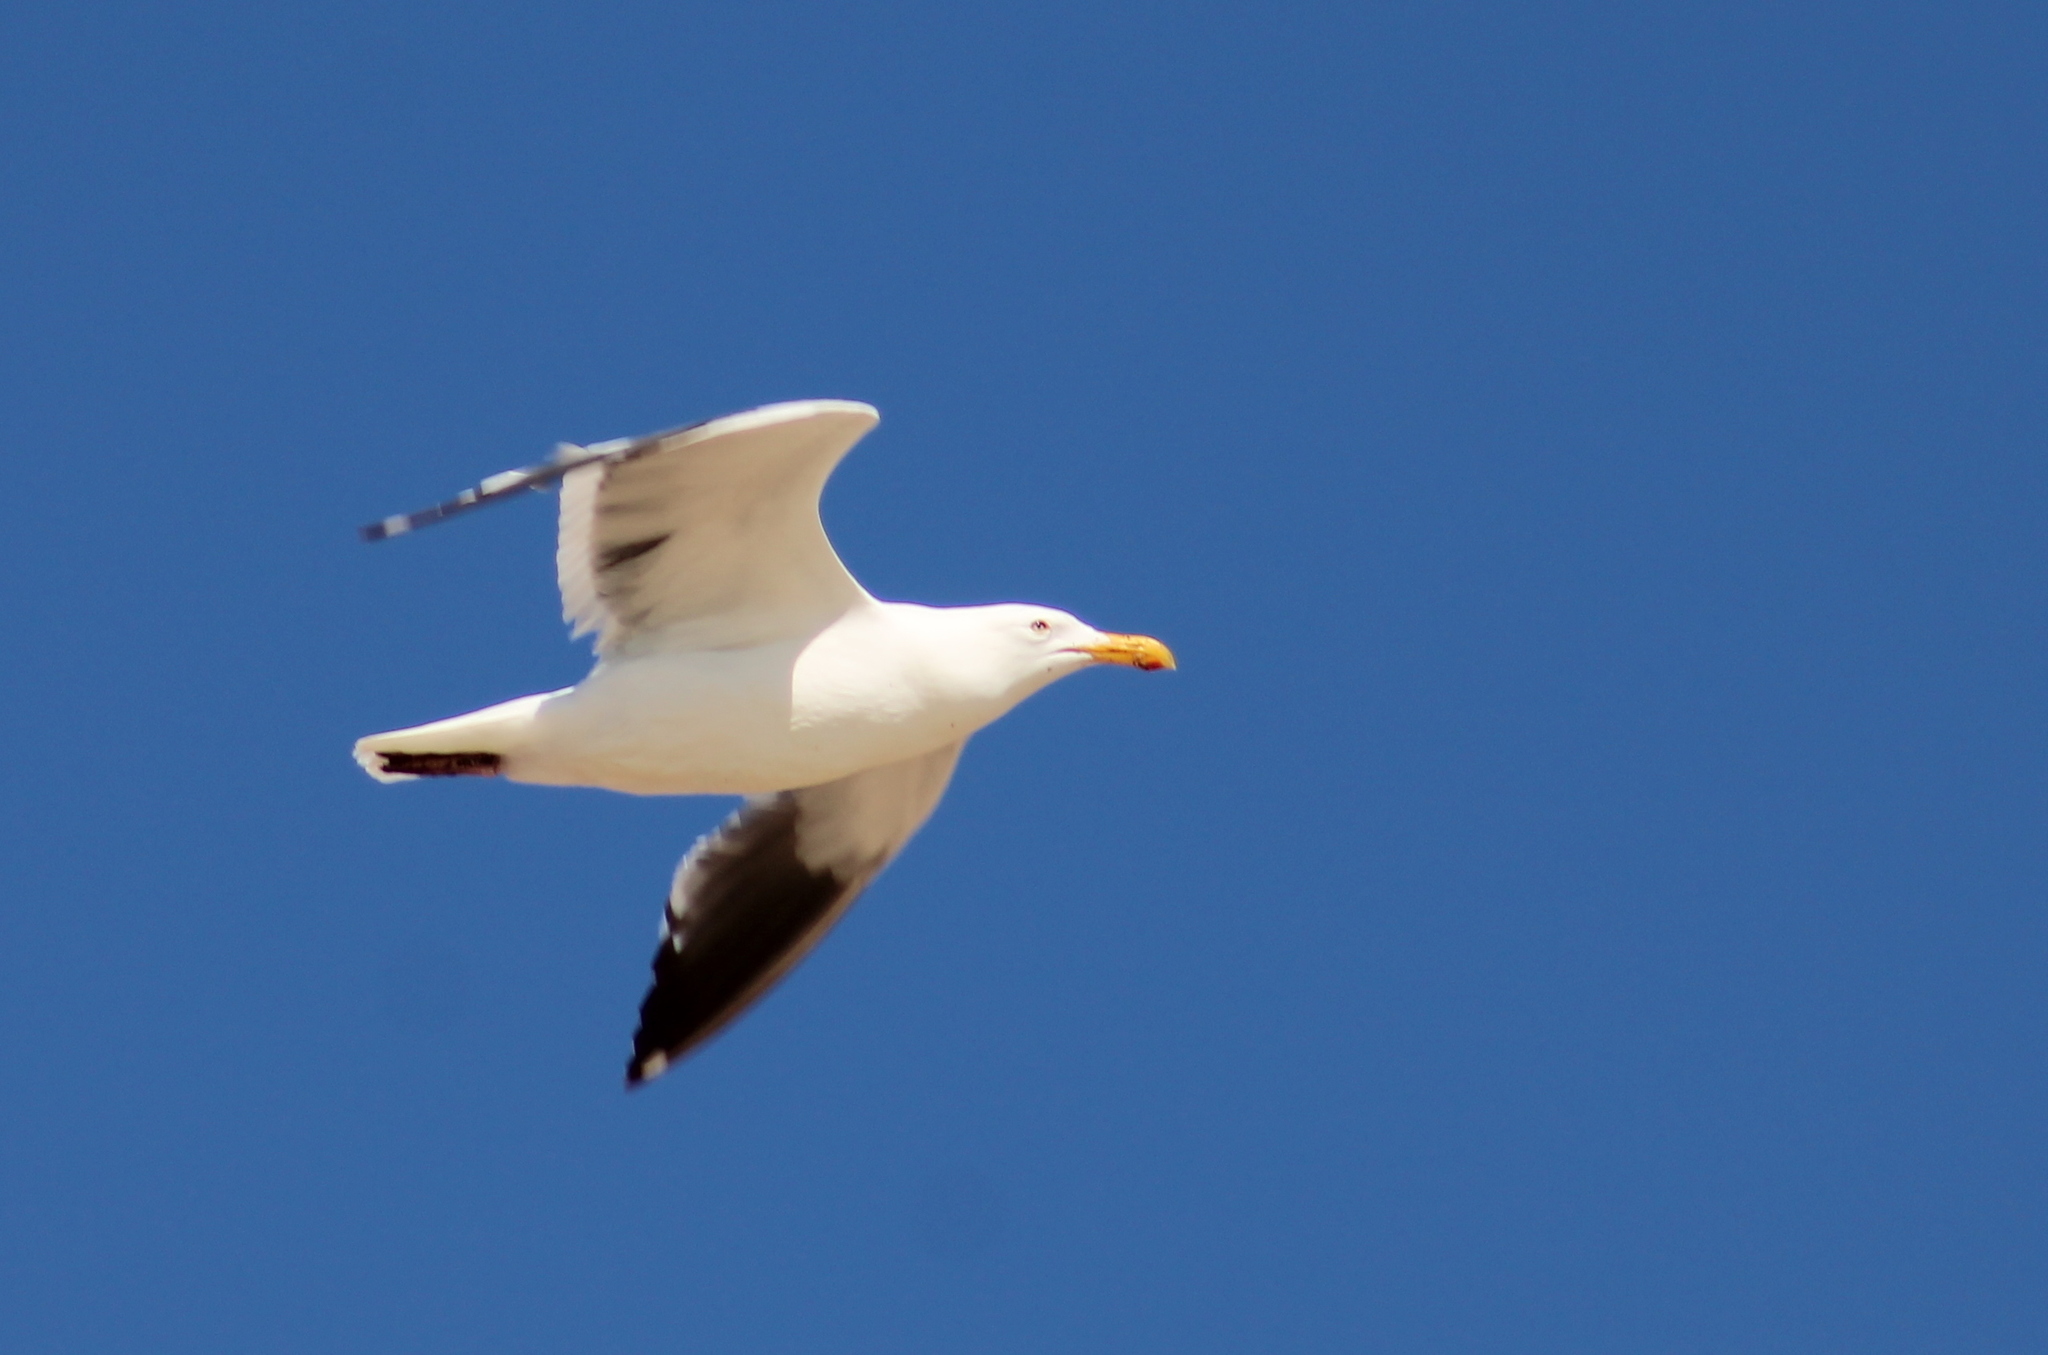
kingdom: Animalia
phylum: Chordata
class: Aves
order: Charadriiformes
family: Laridae
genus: Larus
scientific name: Larus occidentalis
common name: Western gull
